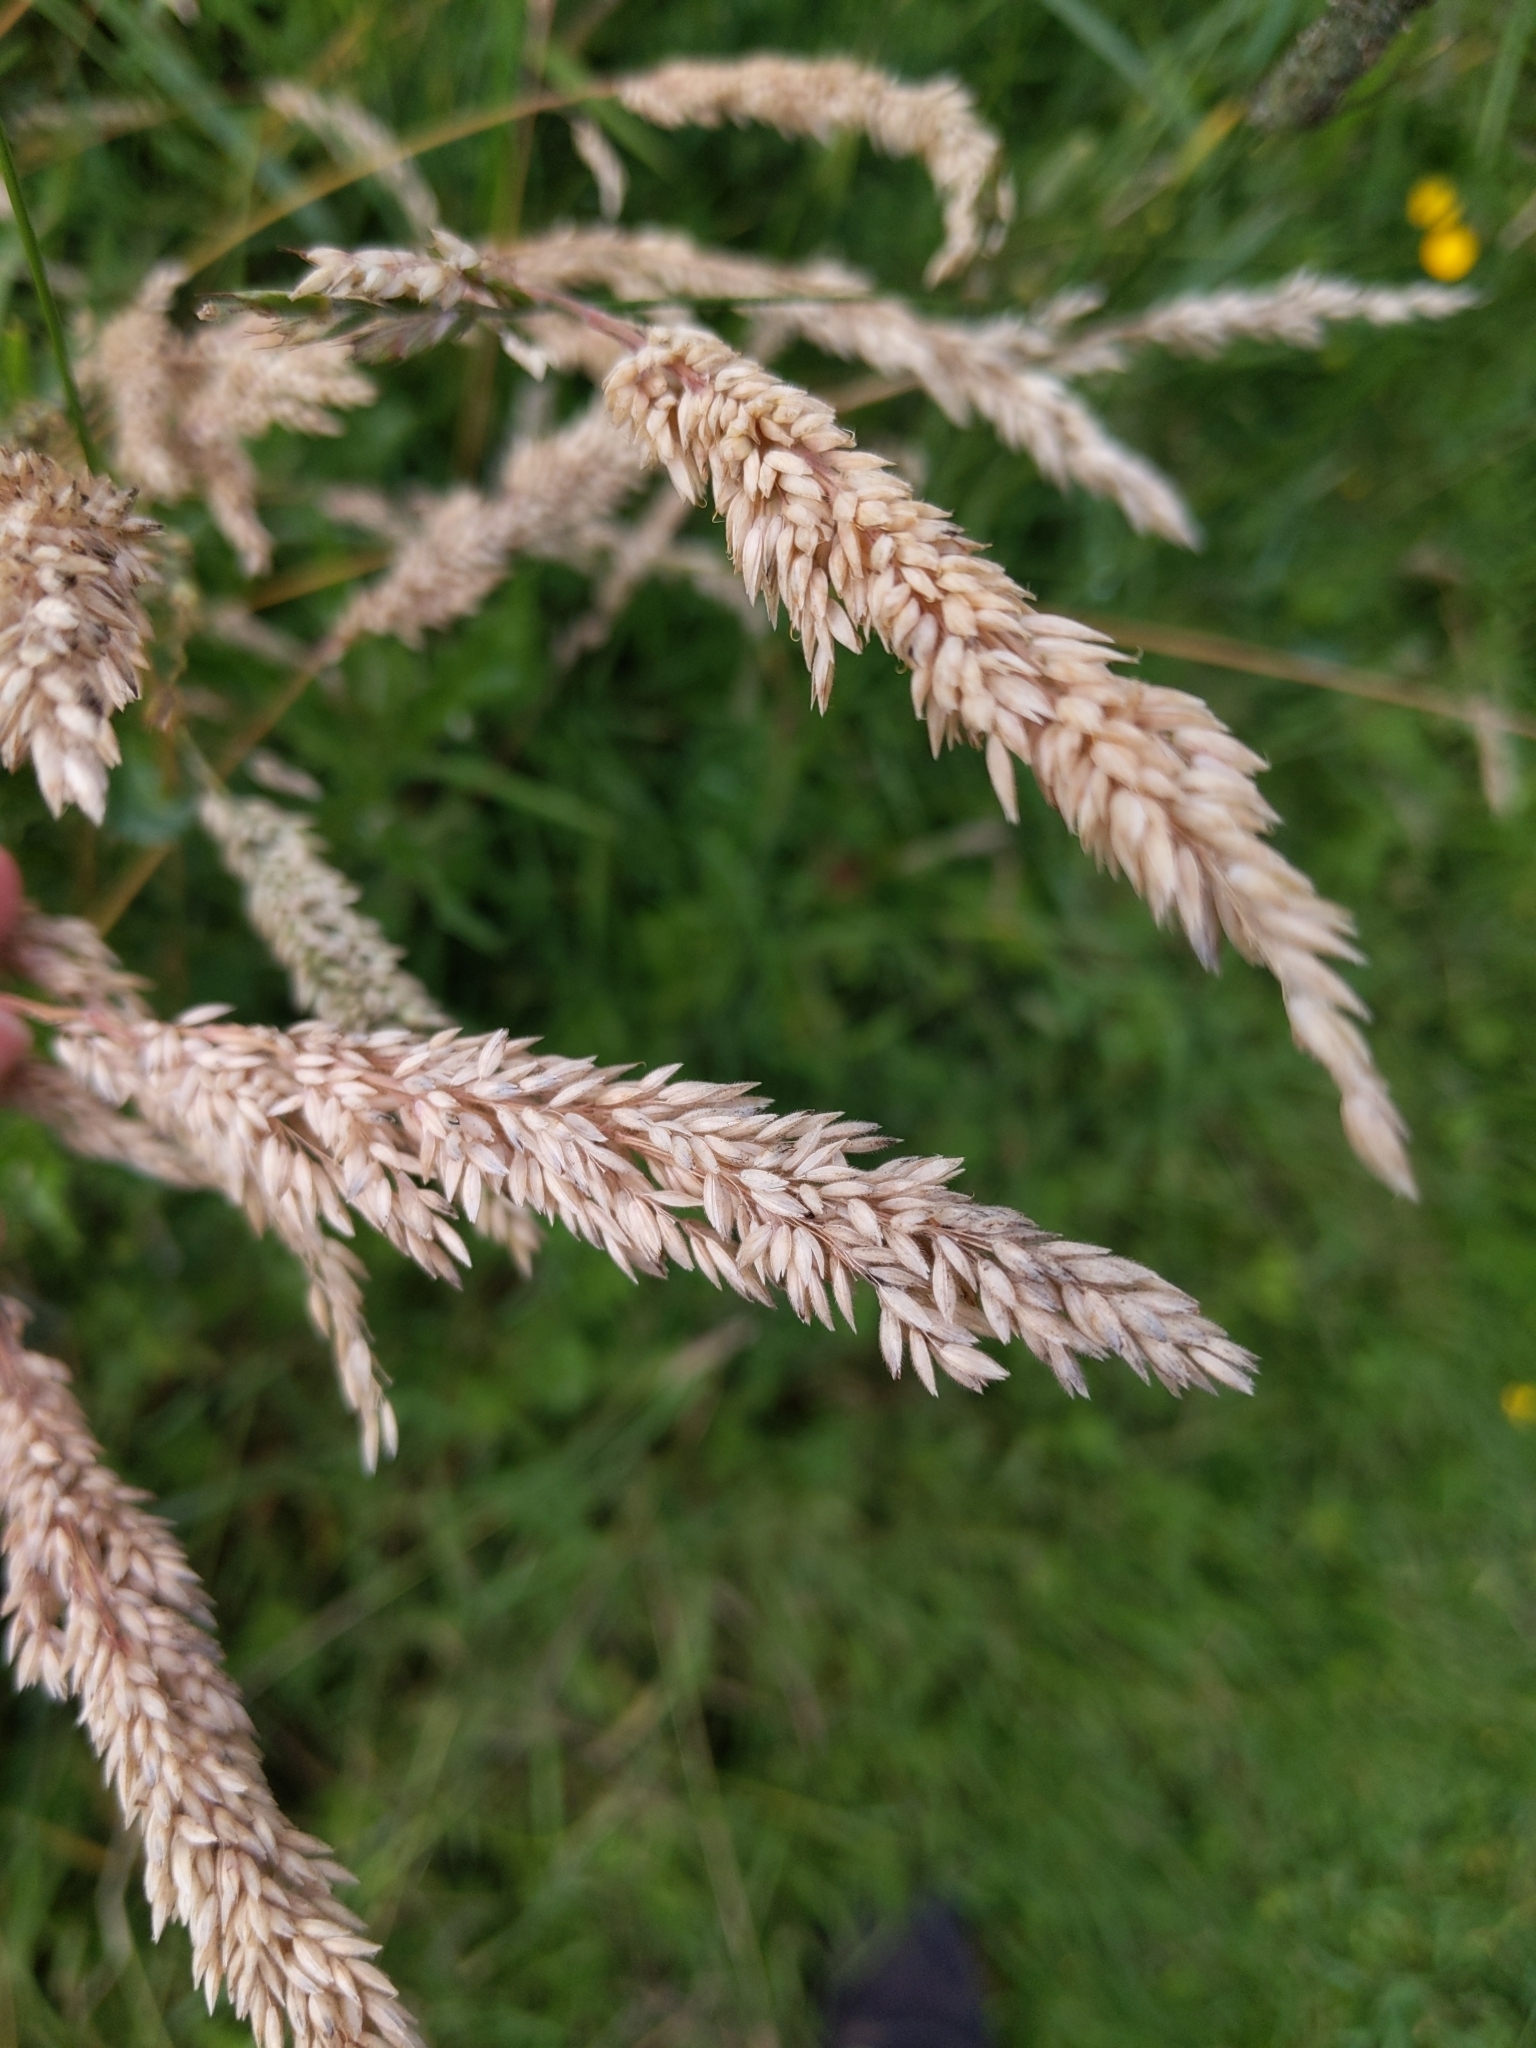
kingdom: Plantae
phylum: Tracheophyta
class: Liliopsida
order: Poales
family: Poaceae
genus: Holcus
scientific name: Holcus lanatus
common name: Yorkshire-fog
